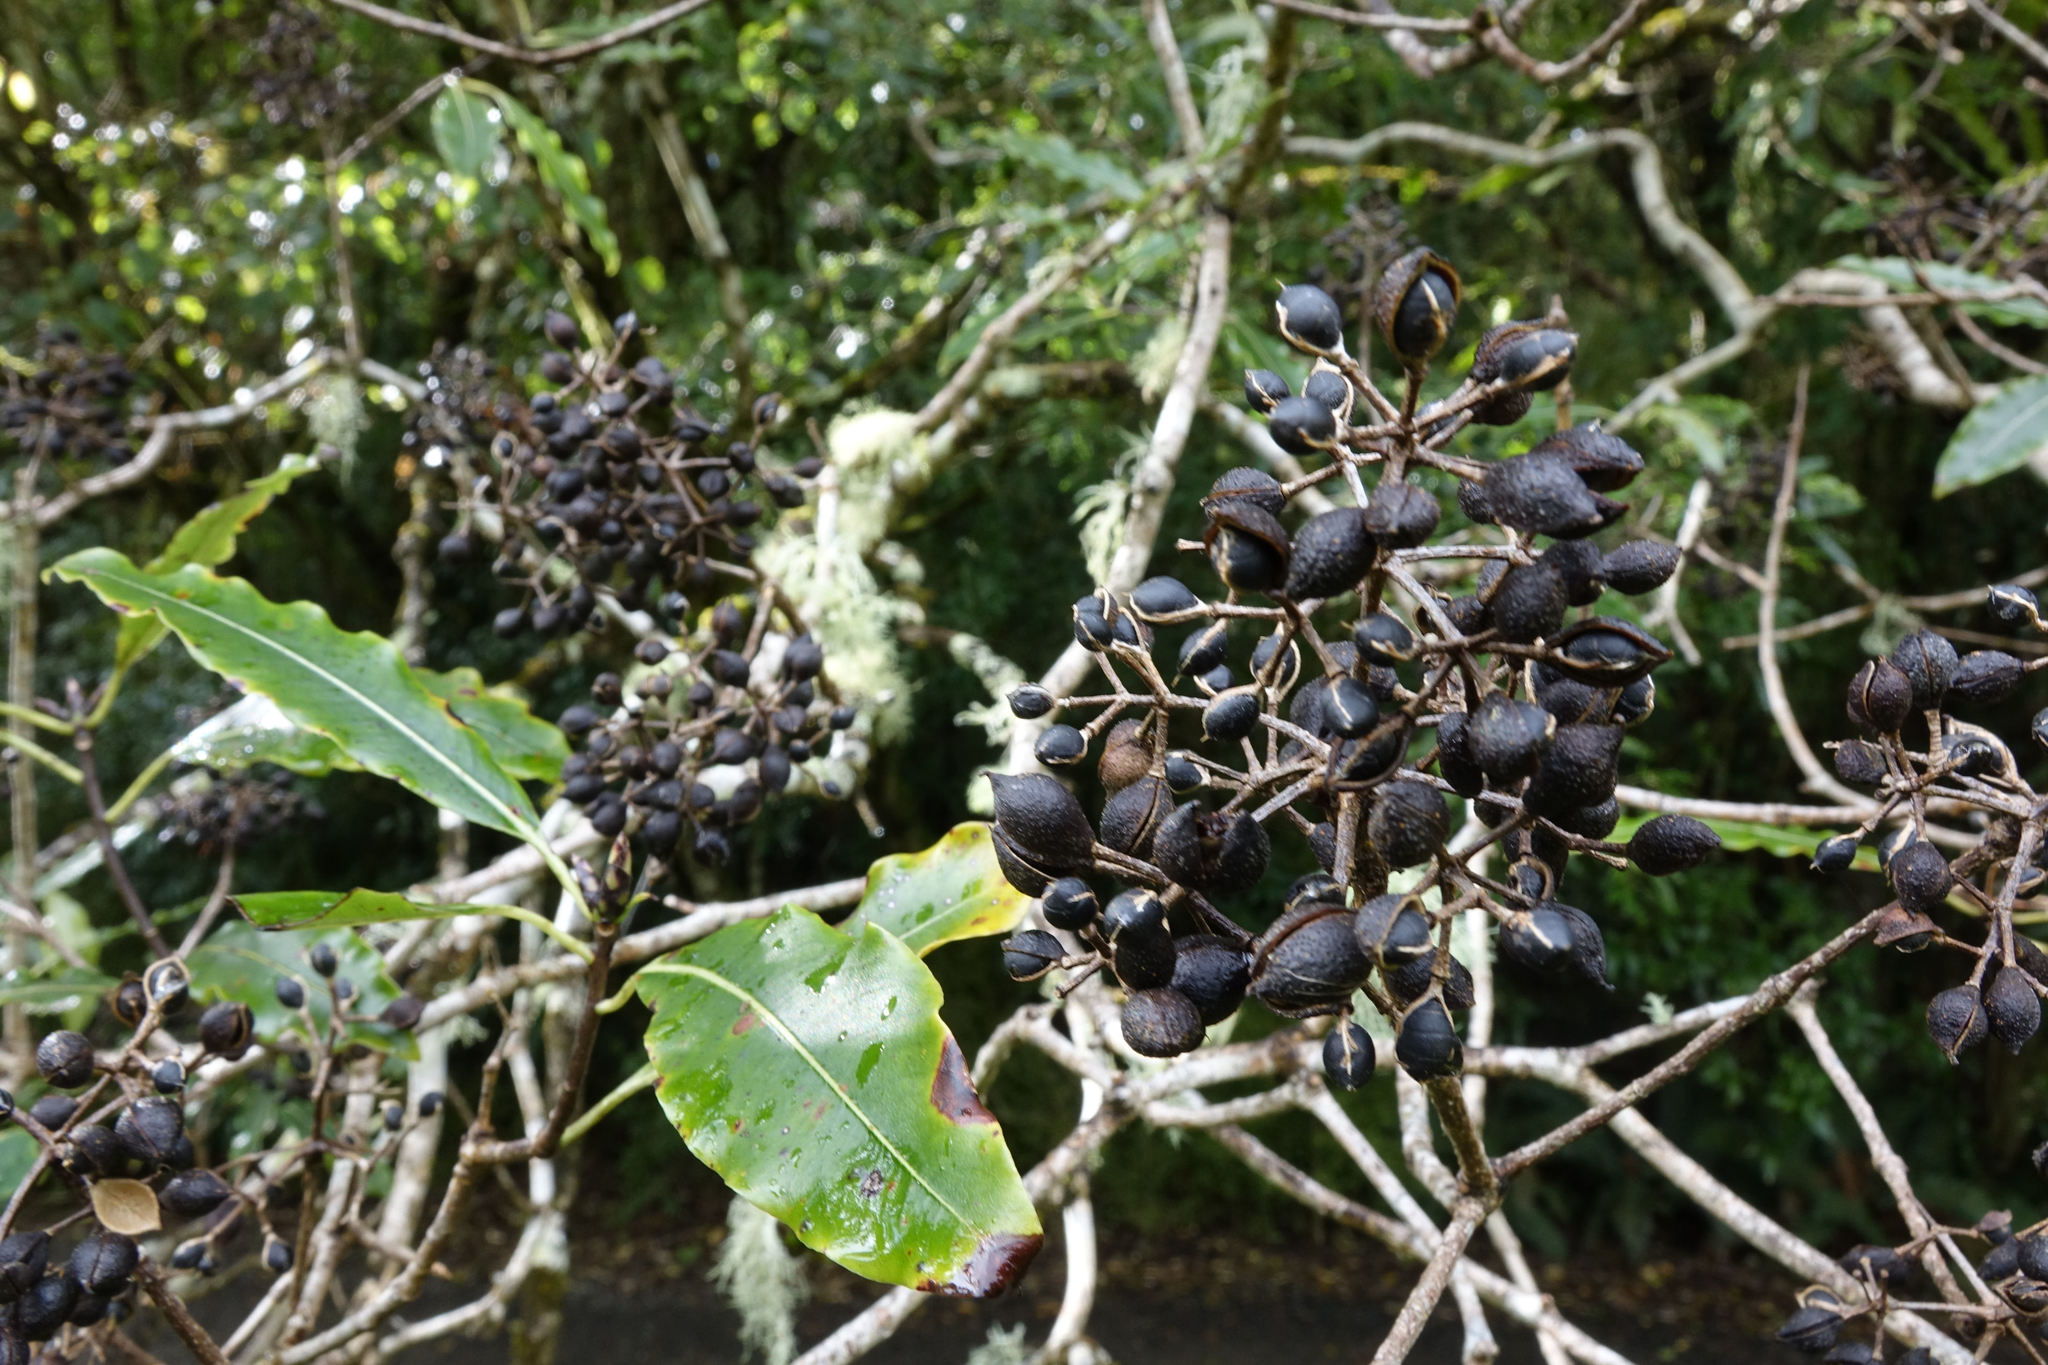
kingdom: Plantae
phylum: Tracheophyta
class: Magnoliopsida
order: Apiales
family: Pittosporaceae
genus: Pittosporum
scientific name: Pittosporum eugenioides
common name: Lemonwood
